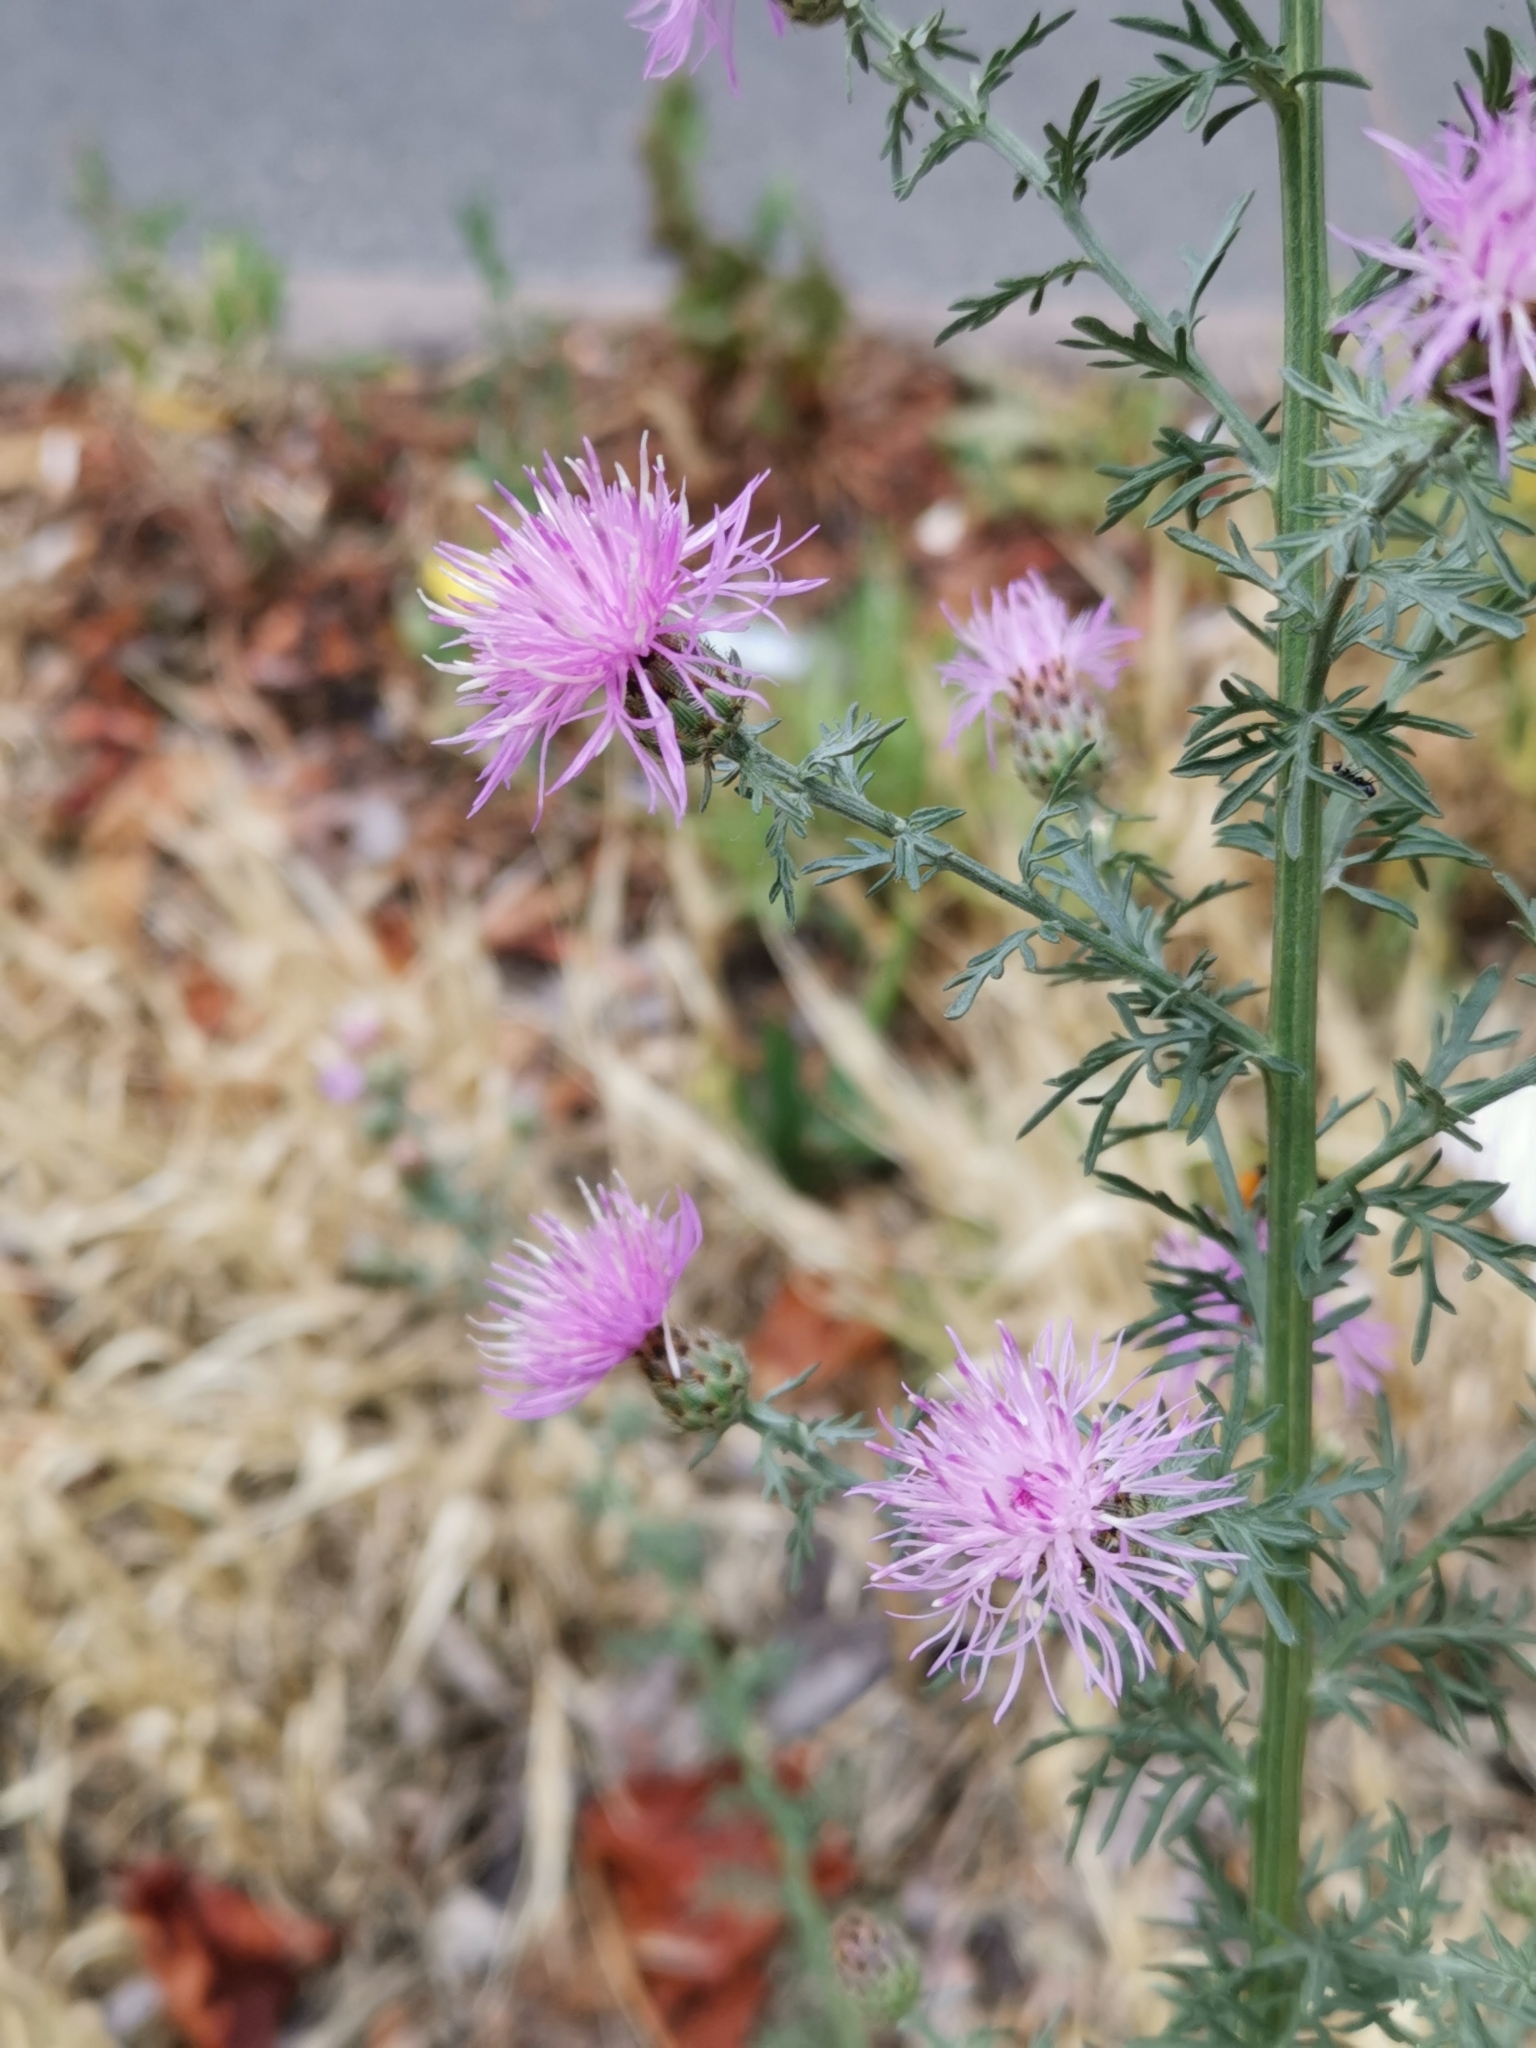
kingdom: Plantae
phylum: Tracheophyta
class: Magnoliopsida
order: Asterales
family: Asteraceae
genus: Centaurea
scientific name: Centaurea stoebe
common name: Spotted knapweed
